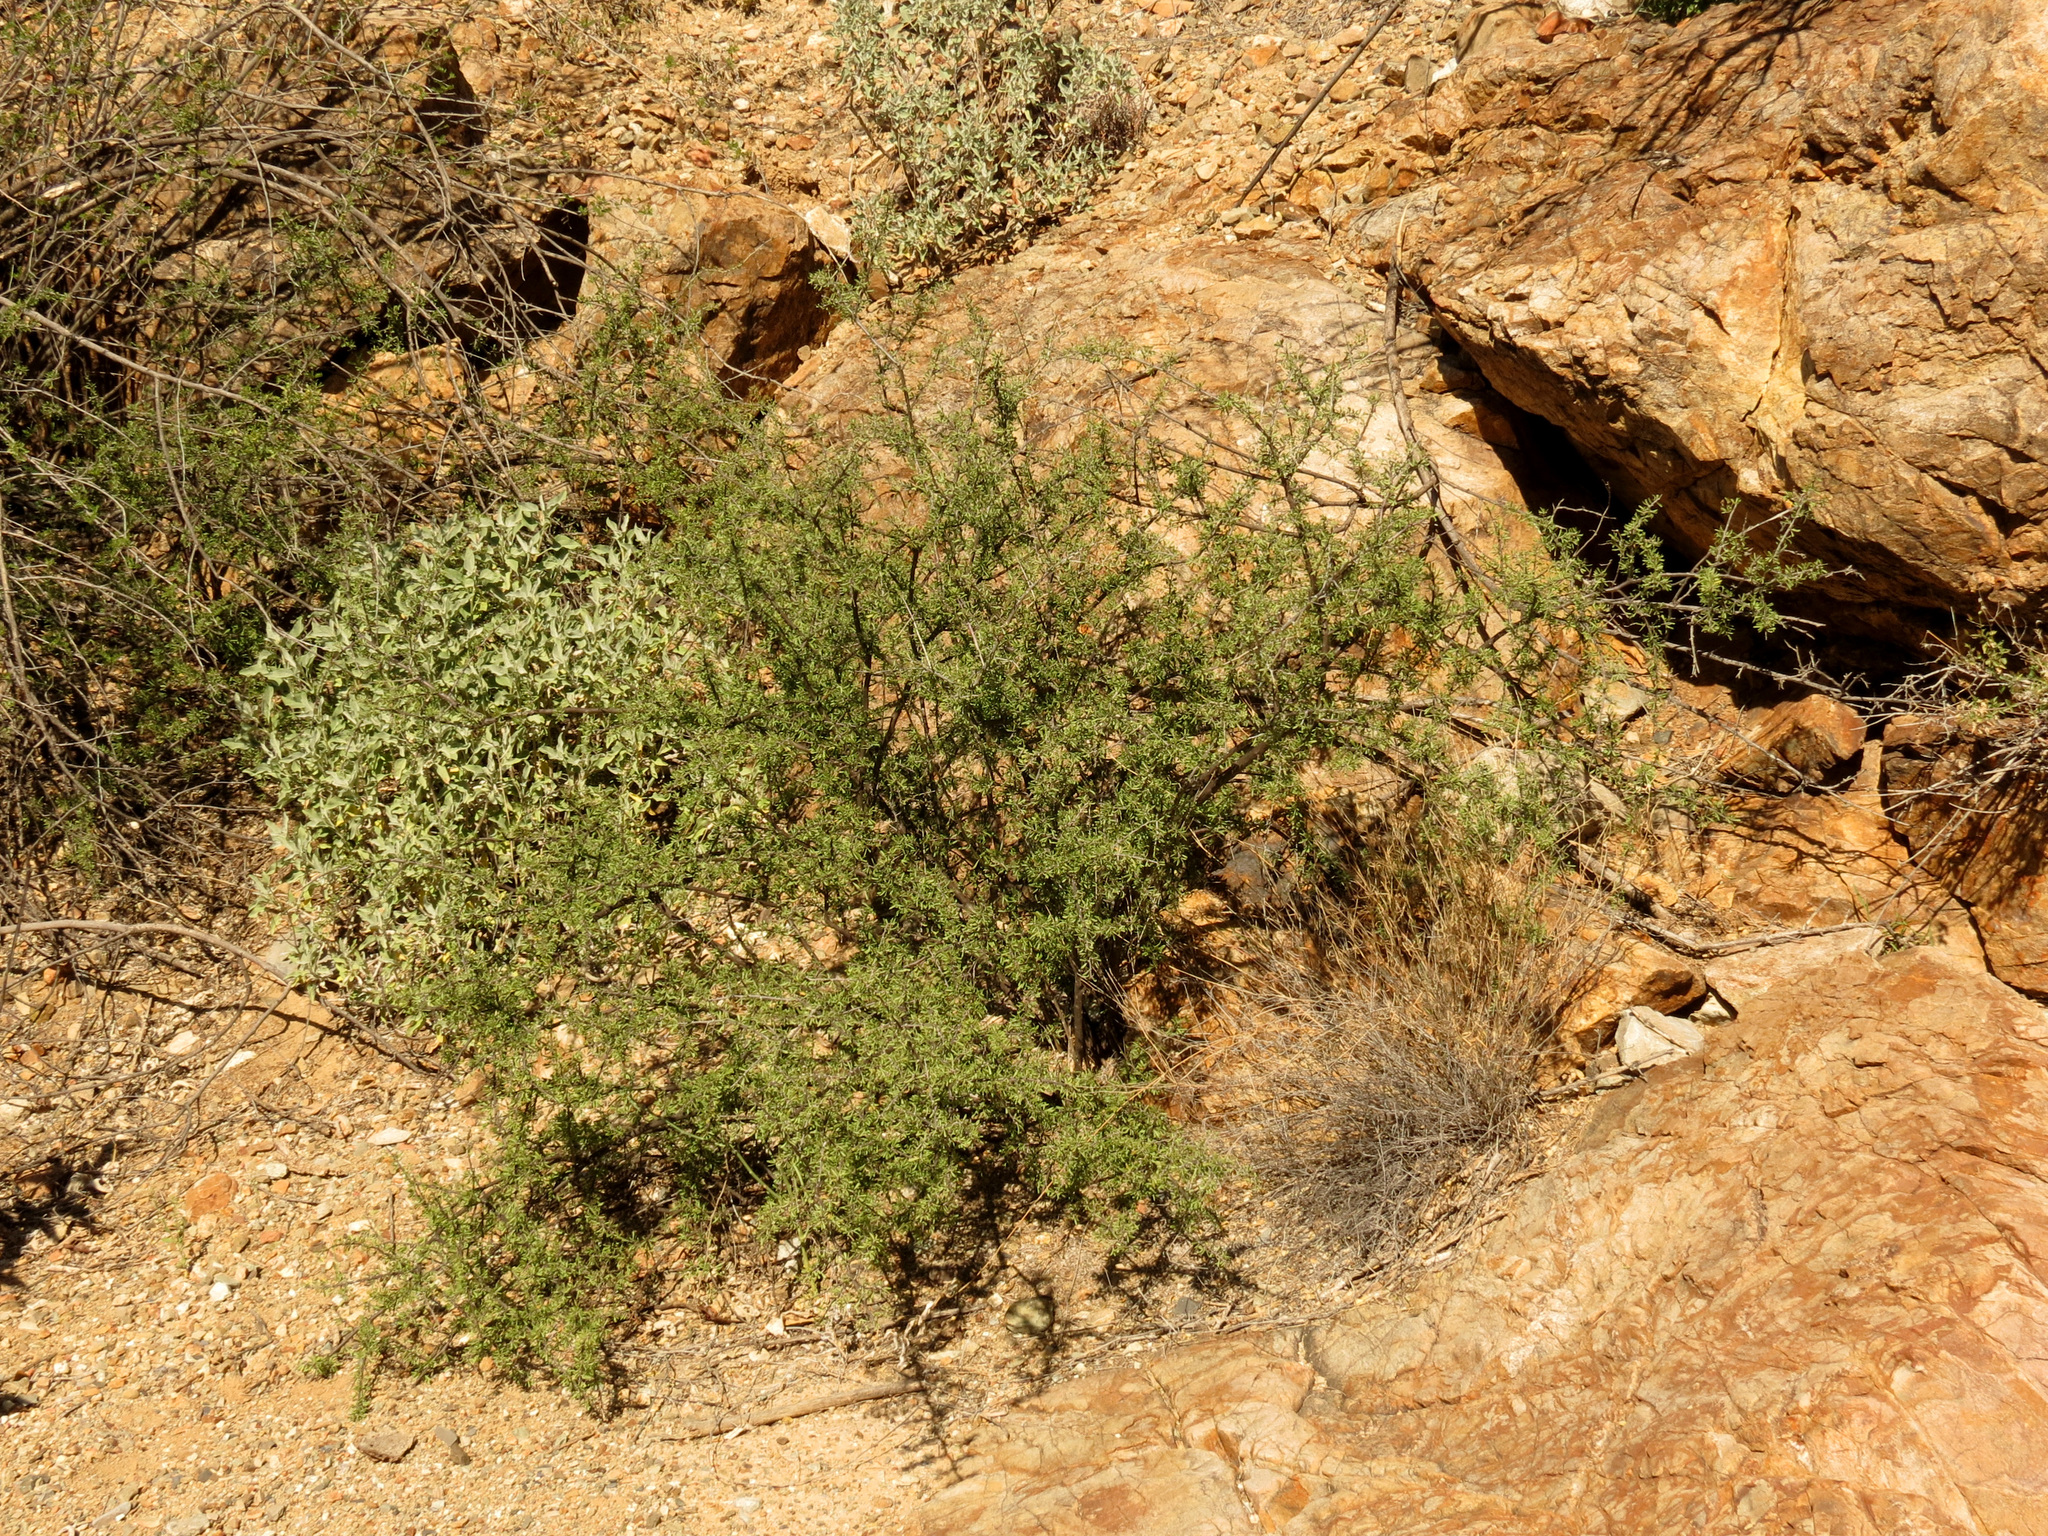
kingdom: Plantae
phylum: Tracheophyta
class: Magnoliopsida
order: Solanales
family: Solanaceae
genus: Lycium
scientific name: Lycium berlandieri
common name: Berlandier wolfberry
